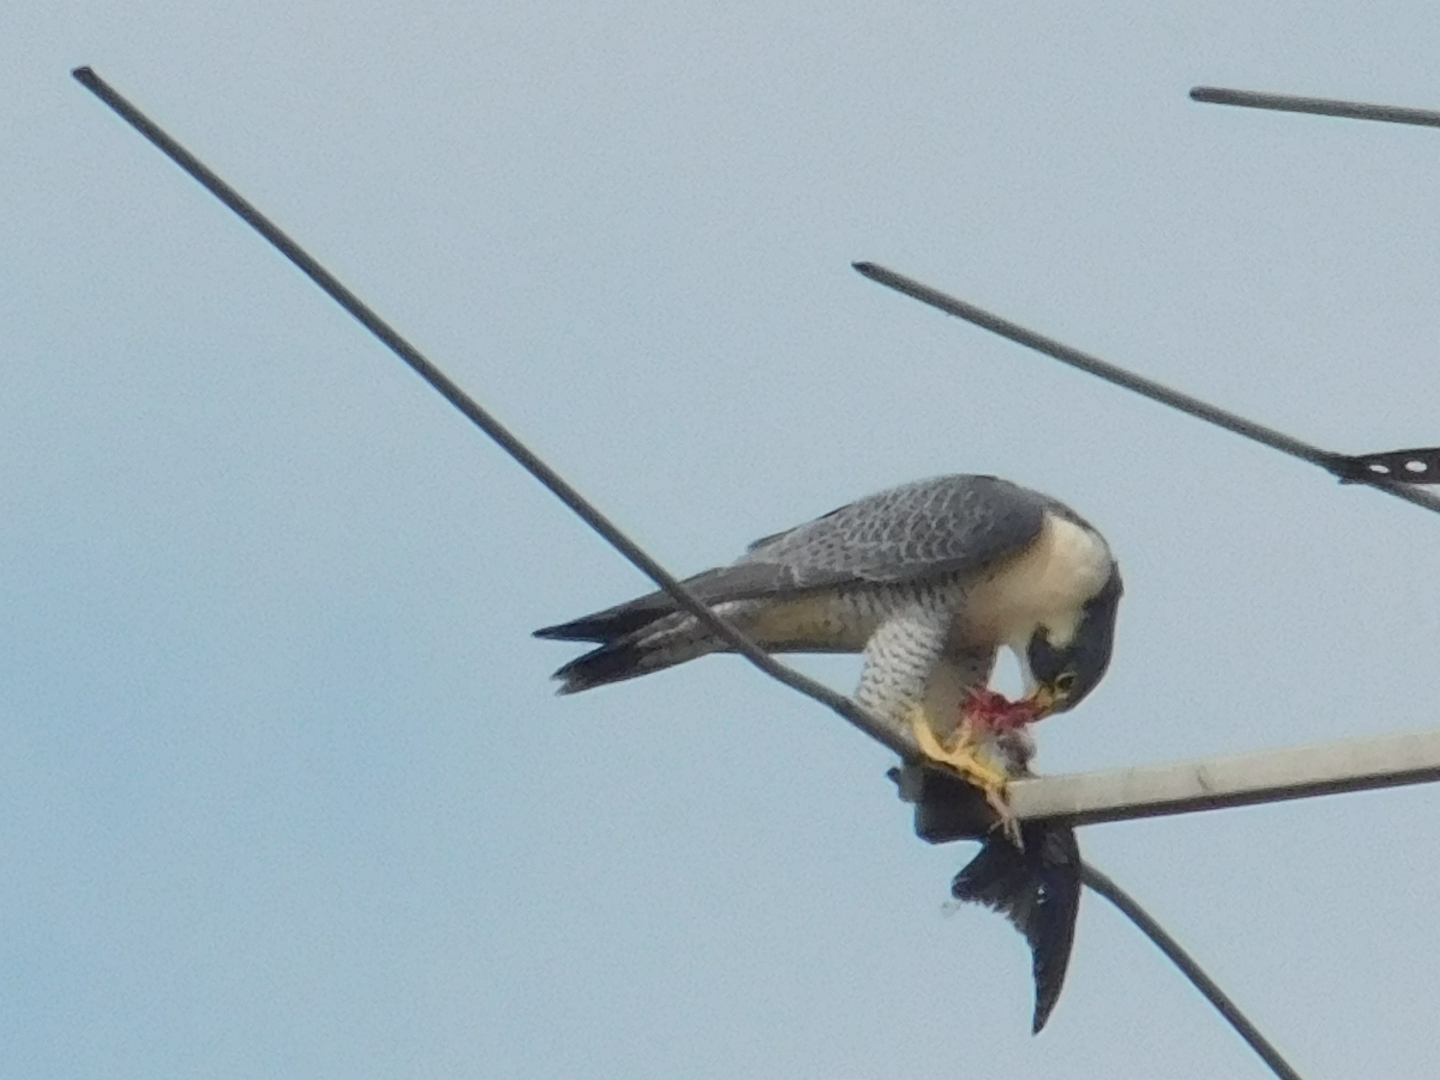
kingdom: Animalia
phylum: Chordata
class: Aves
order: Falconiformes
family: Falconidae
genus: Falco
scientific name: Falco peregrinus
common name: Peregrine falcon
